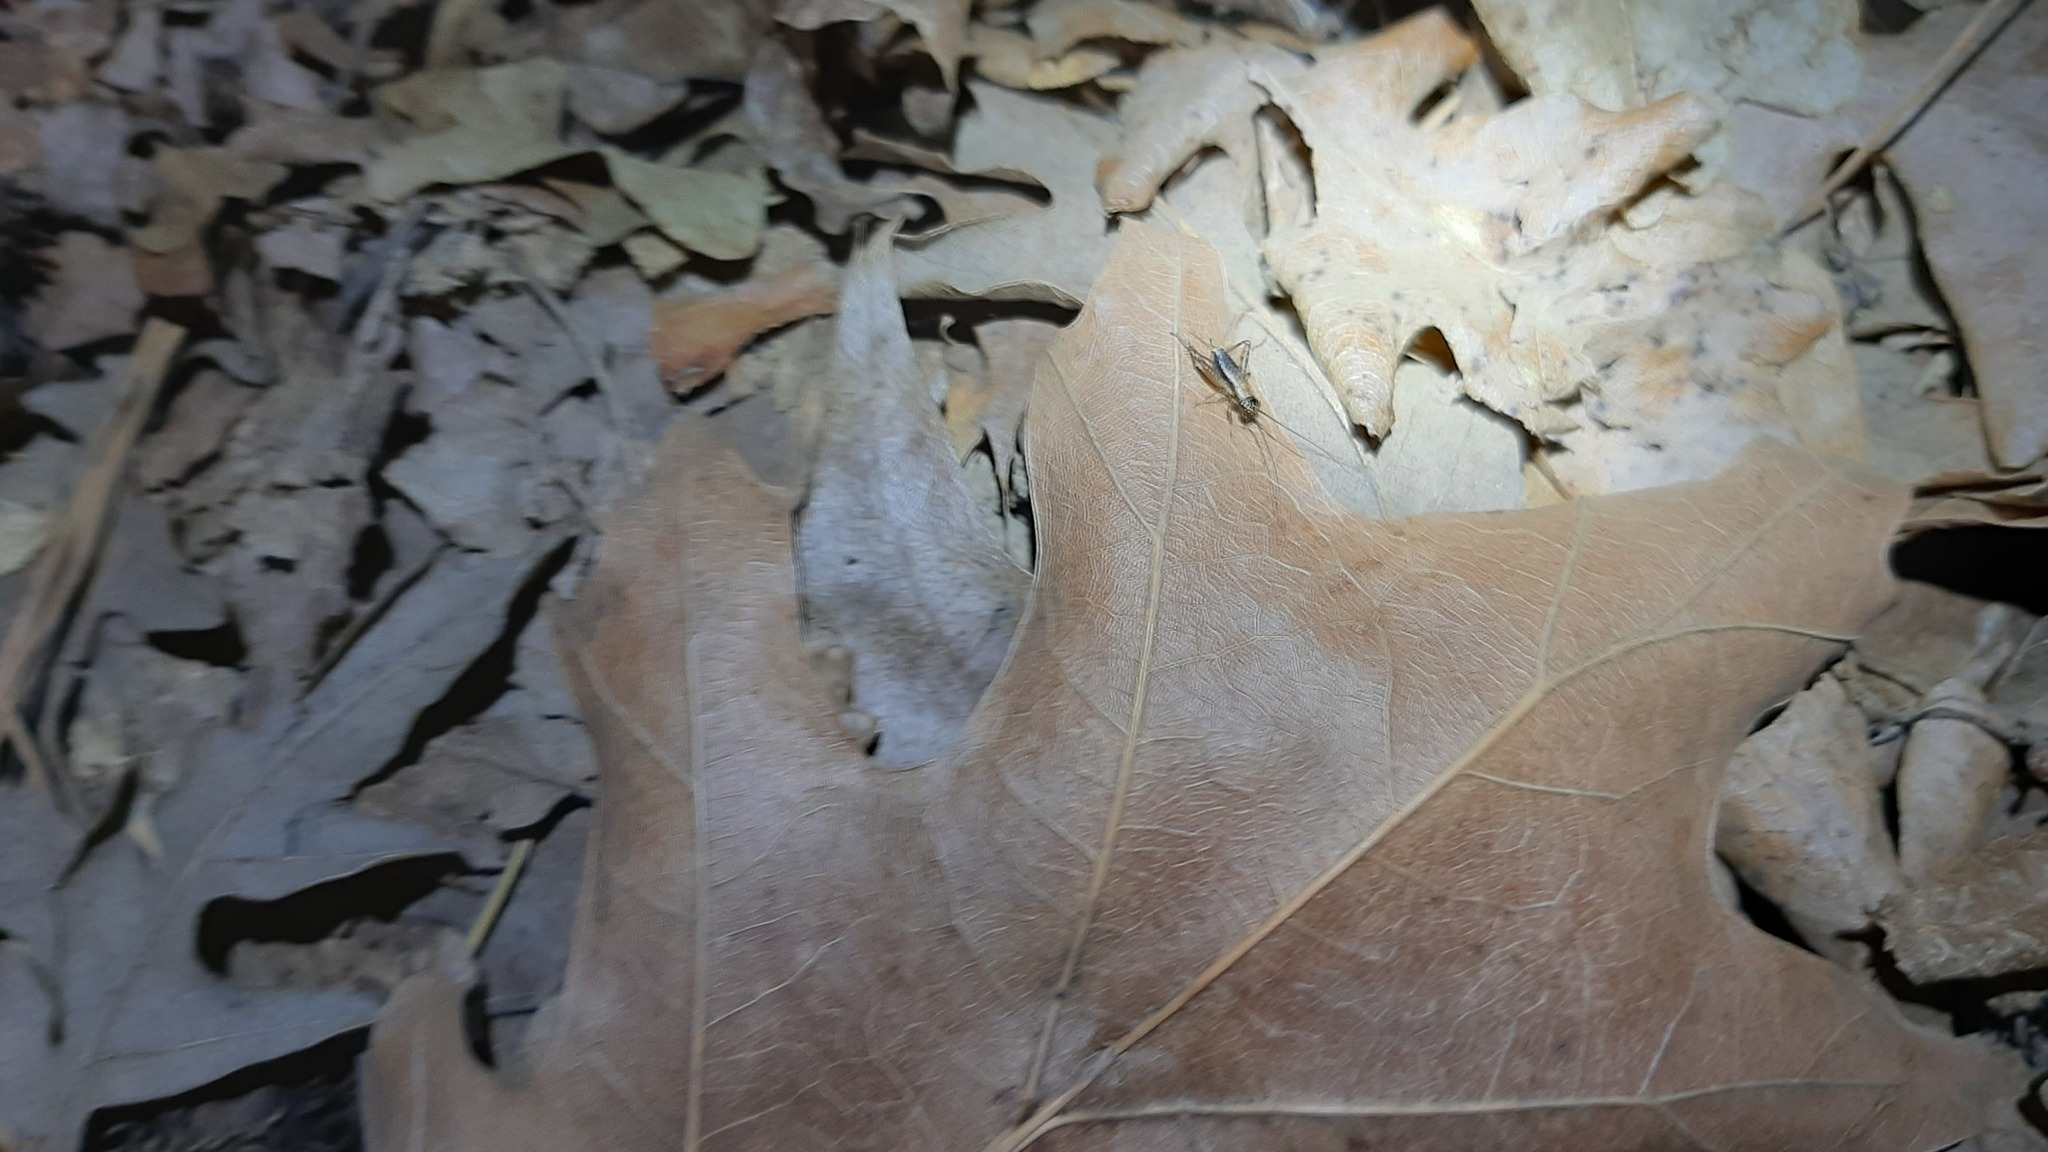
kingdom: Animalia
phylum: Arthropoda
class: Insecta
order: Orthoptera
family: Trigonidiidae
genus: Nemobius
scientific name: Nemobius sylvestris
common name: Wood-cricket
